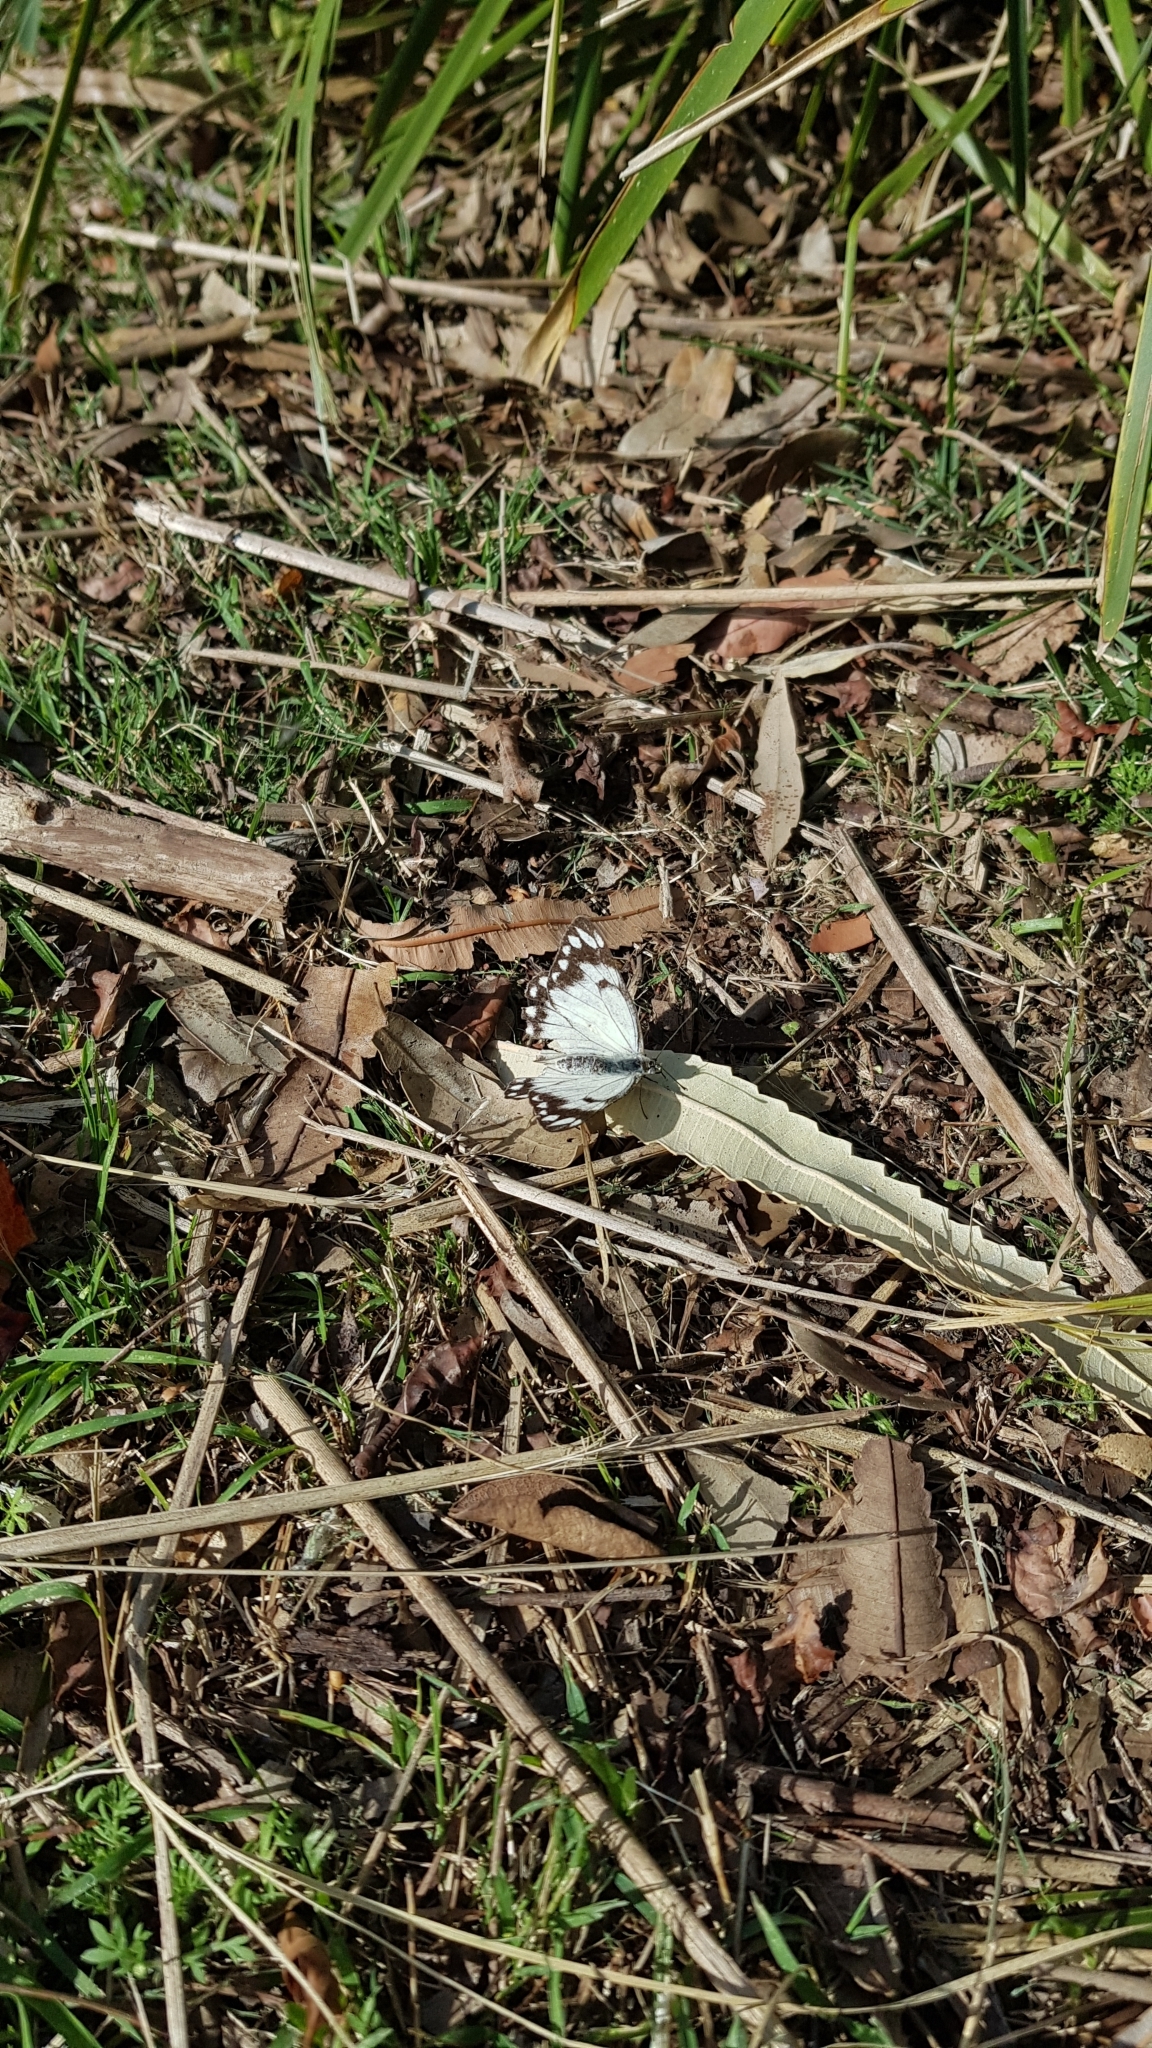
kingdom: Animalia
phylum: Arthropoda
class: Insecta
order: Lepidoptera
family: Pieridae
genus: Belenois
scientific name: Belenois java
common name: Caper white
